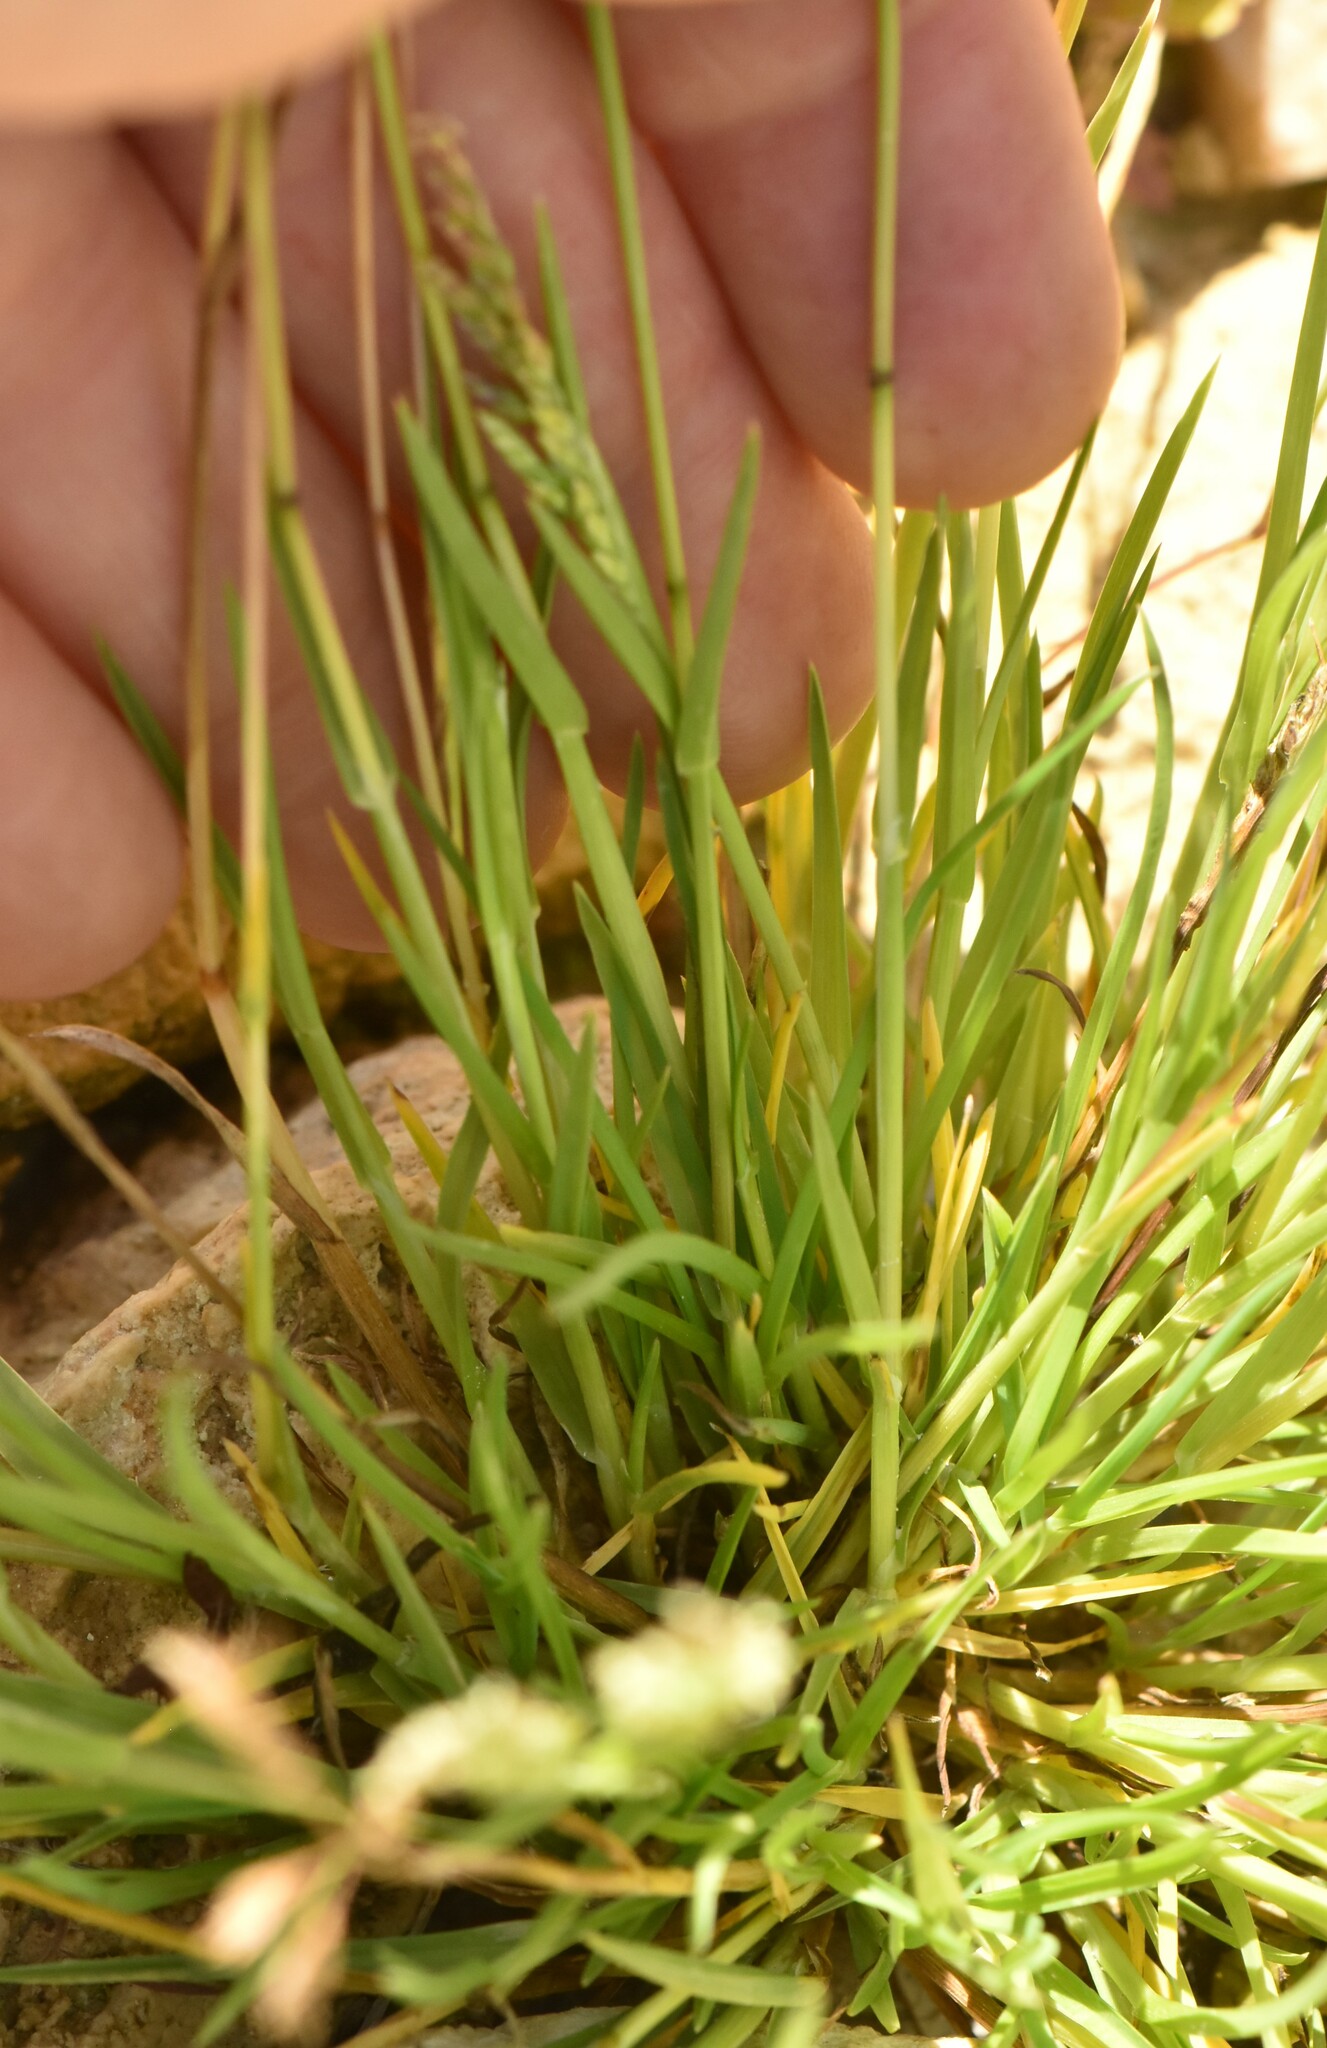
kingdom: Plantae
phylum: Tracheophyta
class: Liliopsida
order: Poales
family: Poaceae
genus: Poa
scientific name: Poa annua
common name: Annual bluegrass
